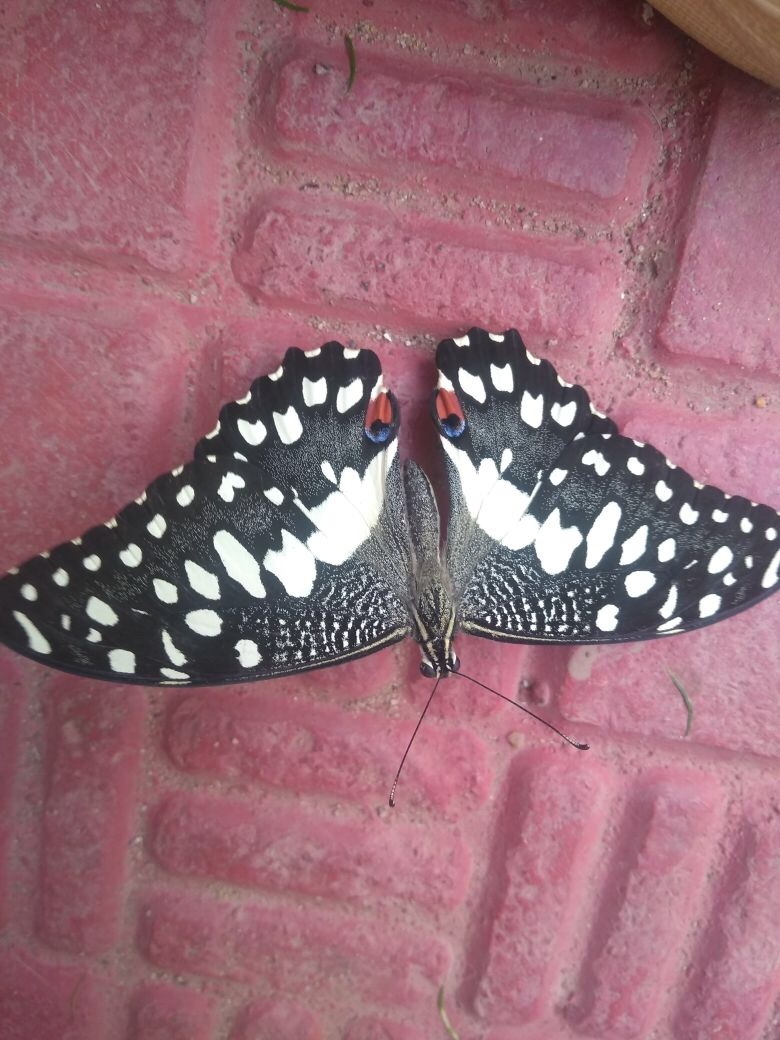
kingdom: Animalia
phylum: Arthropoda
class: Insecta
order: Lepidoptera
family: Papilionidae
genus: Papilio
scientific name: Papilio demoleus
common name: Lime butterfly
